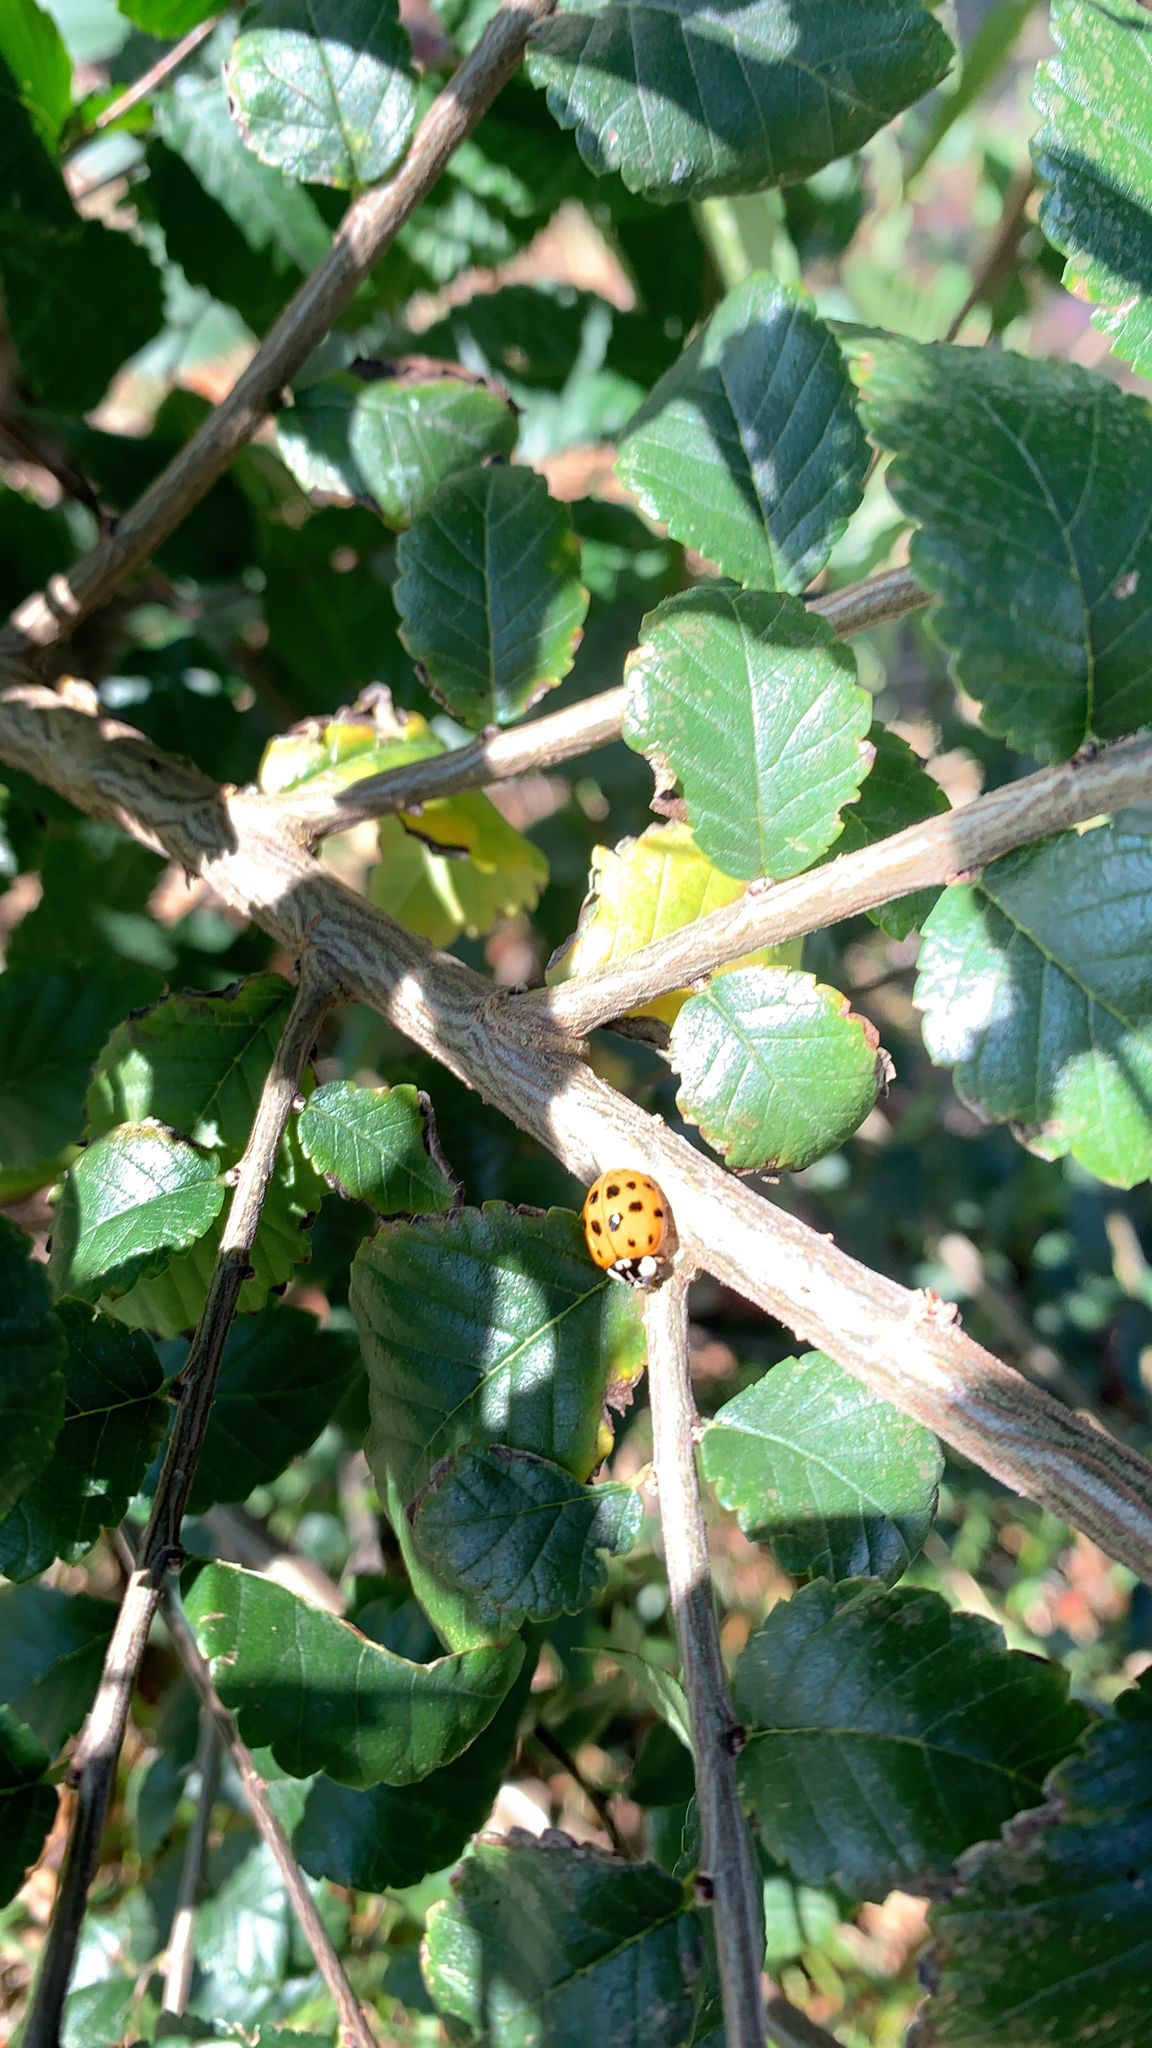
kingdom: Animalia
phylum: Arthropoda
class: Insecta
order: Coleoptera
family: Coccinellidae
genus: Harmonia
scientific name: Harmonia axyridis
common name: Harlequin ladybird
